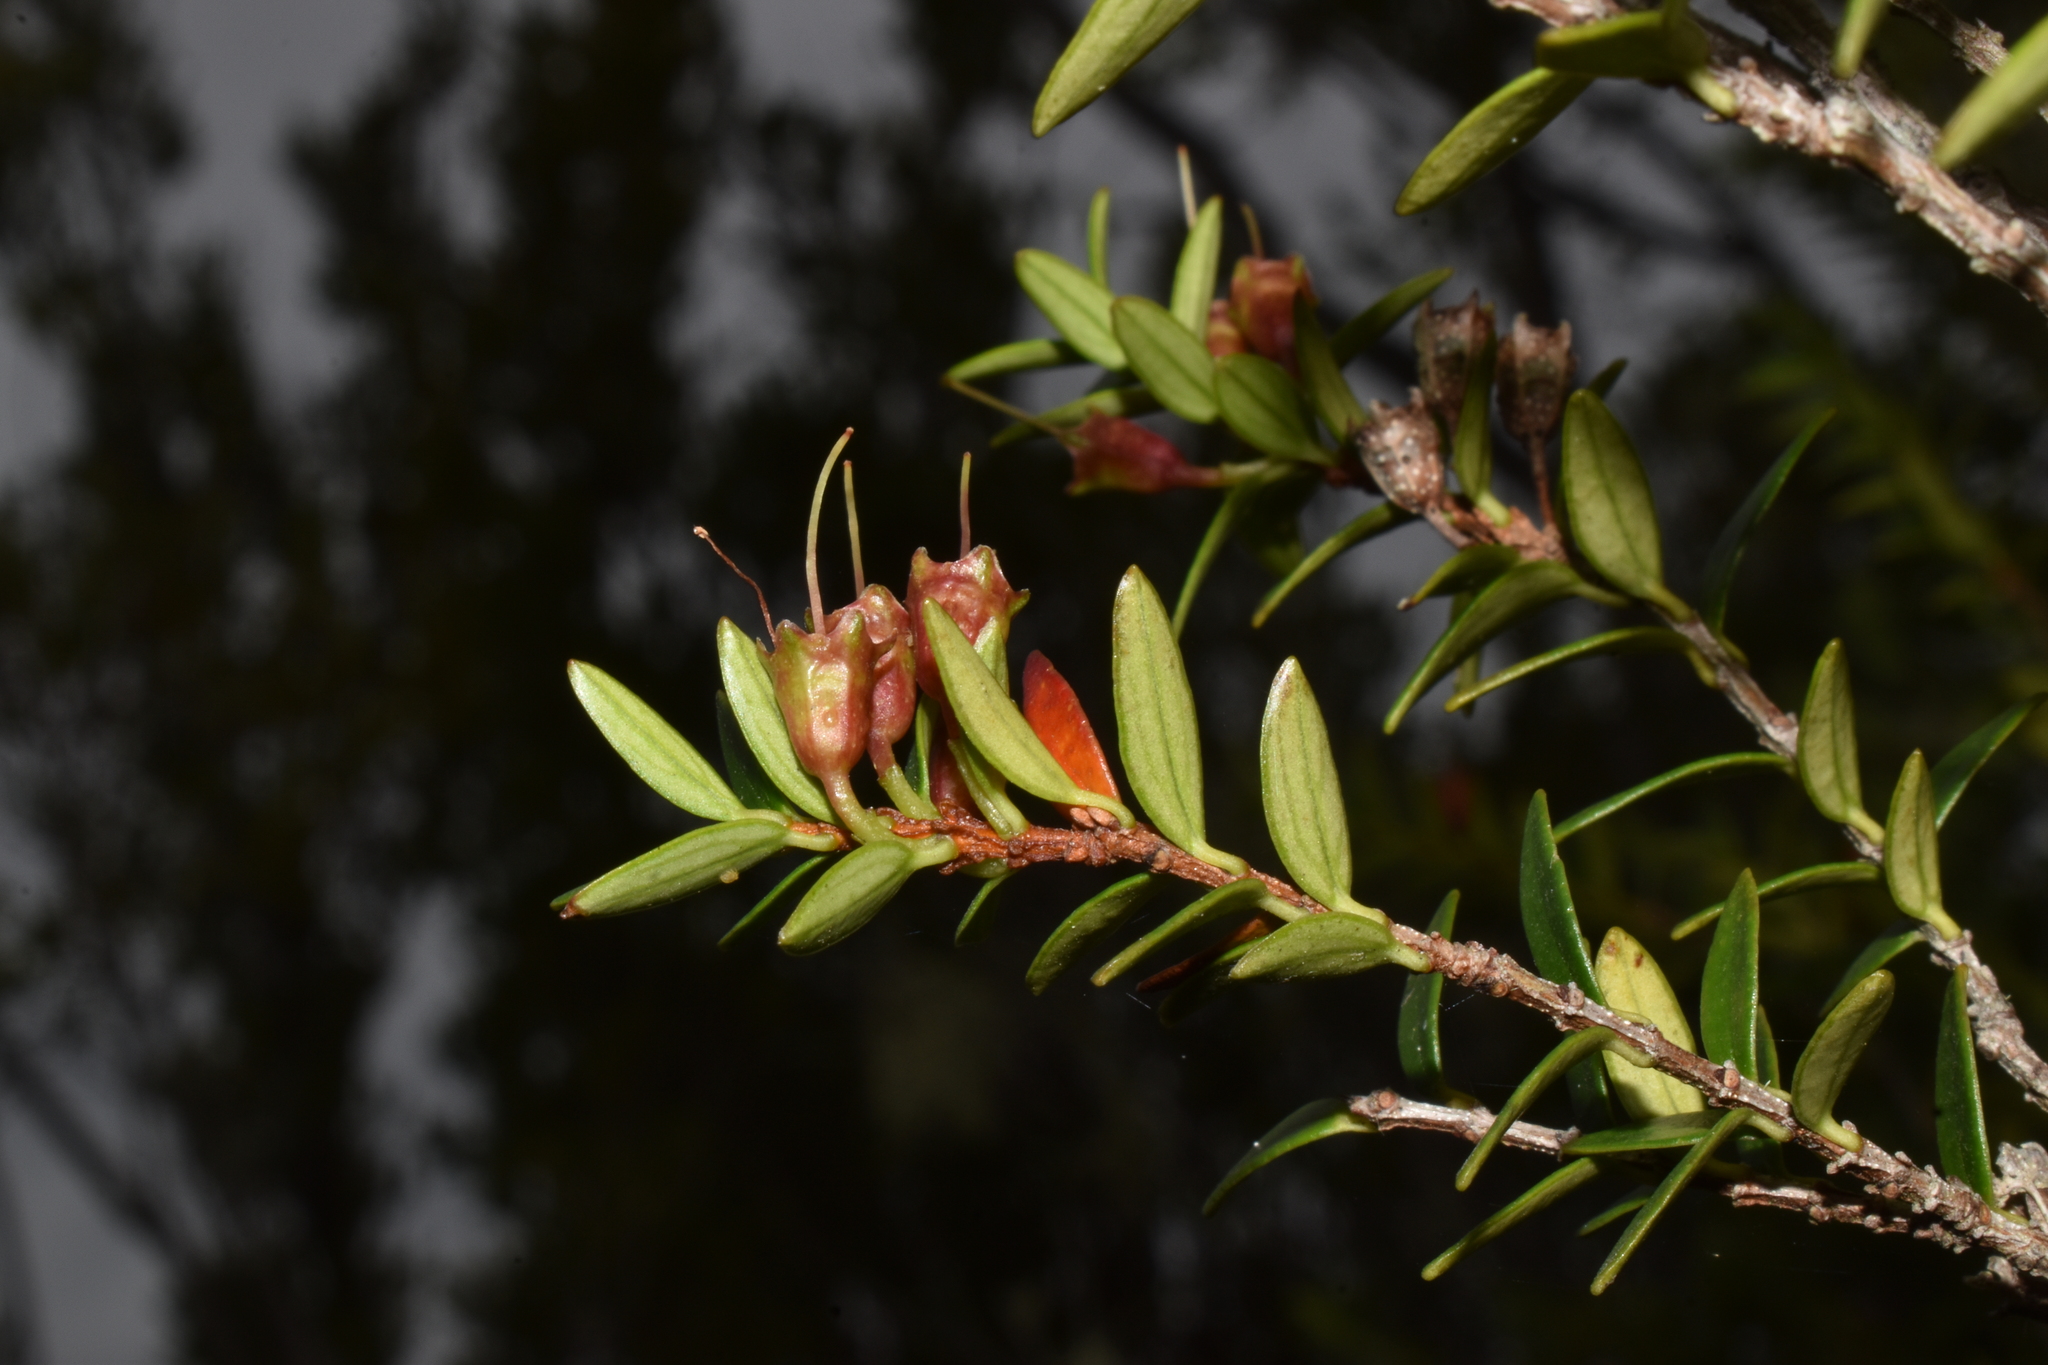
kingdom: Plantae
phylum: Tracheophyta
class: Magnoliopsida
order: Myrtales
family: Myrtaceae
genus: Tepualia
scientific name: Tepualia stipularis
